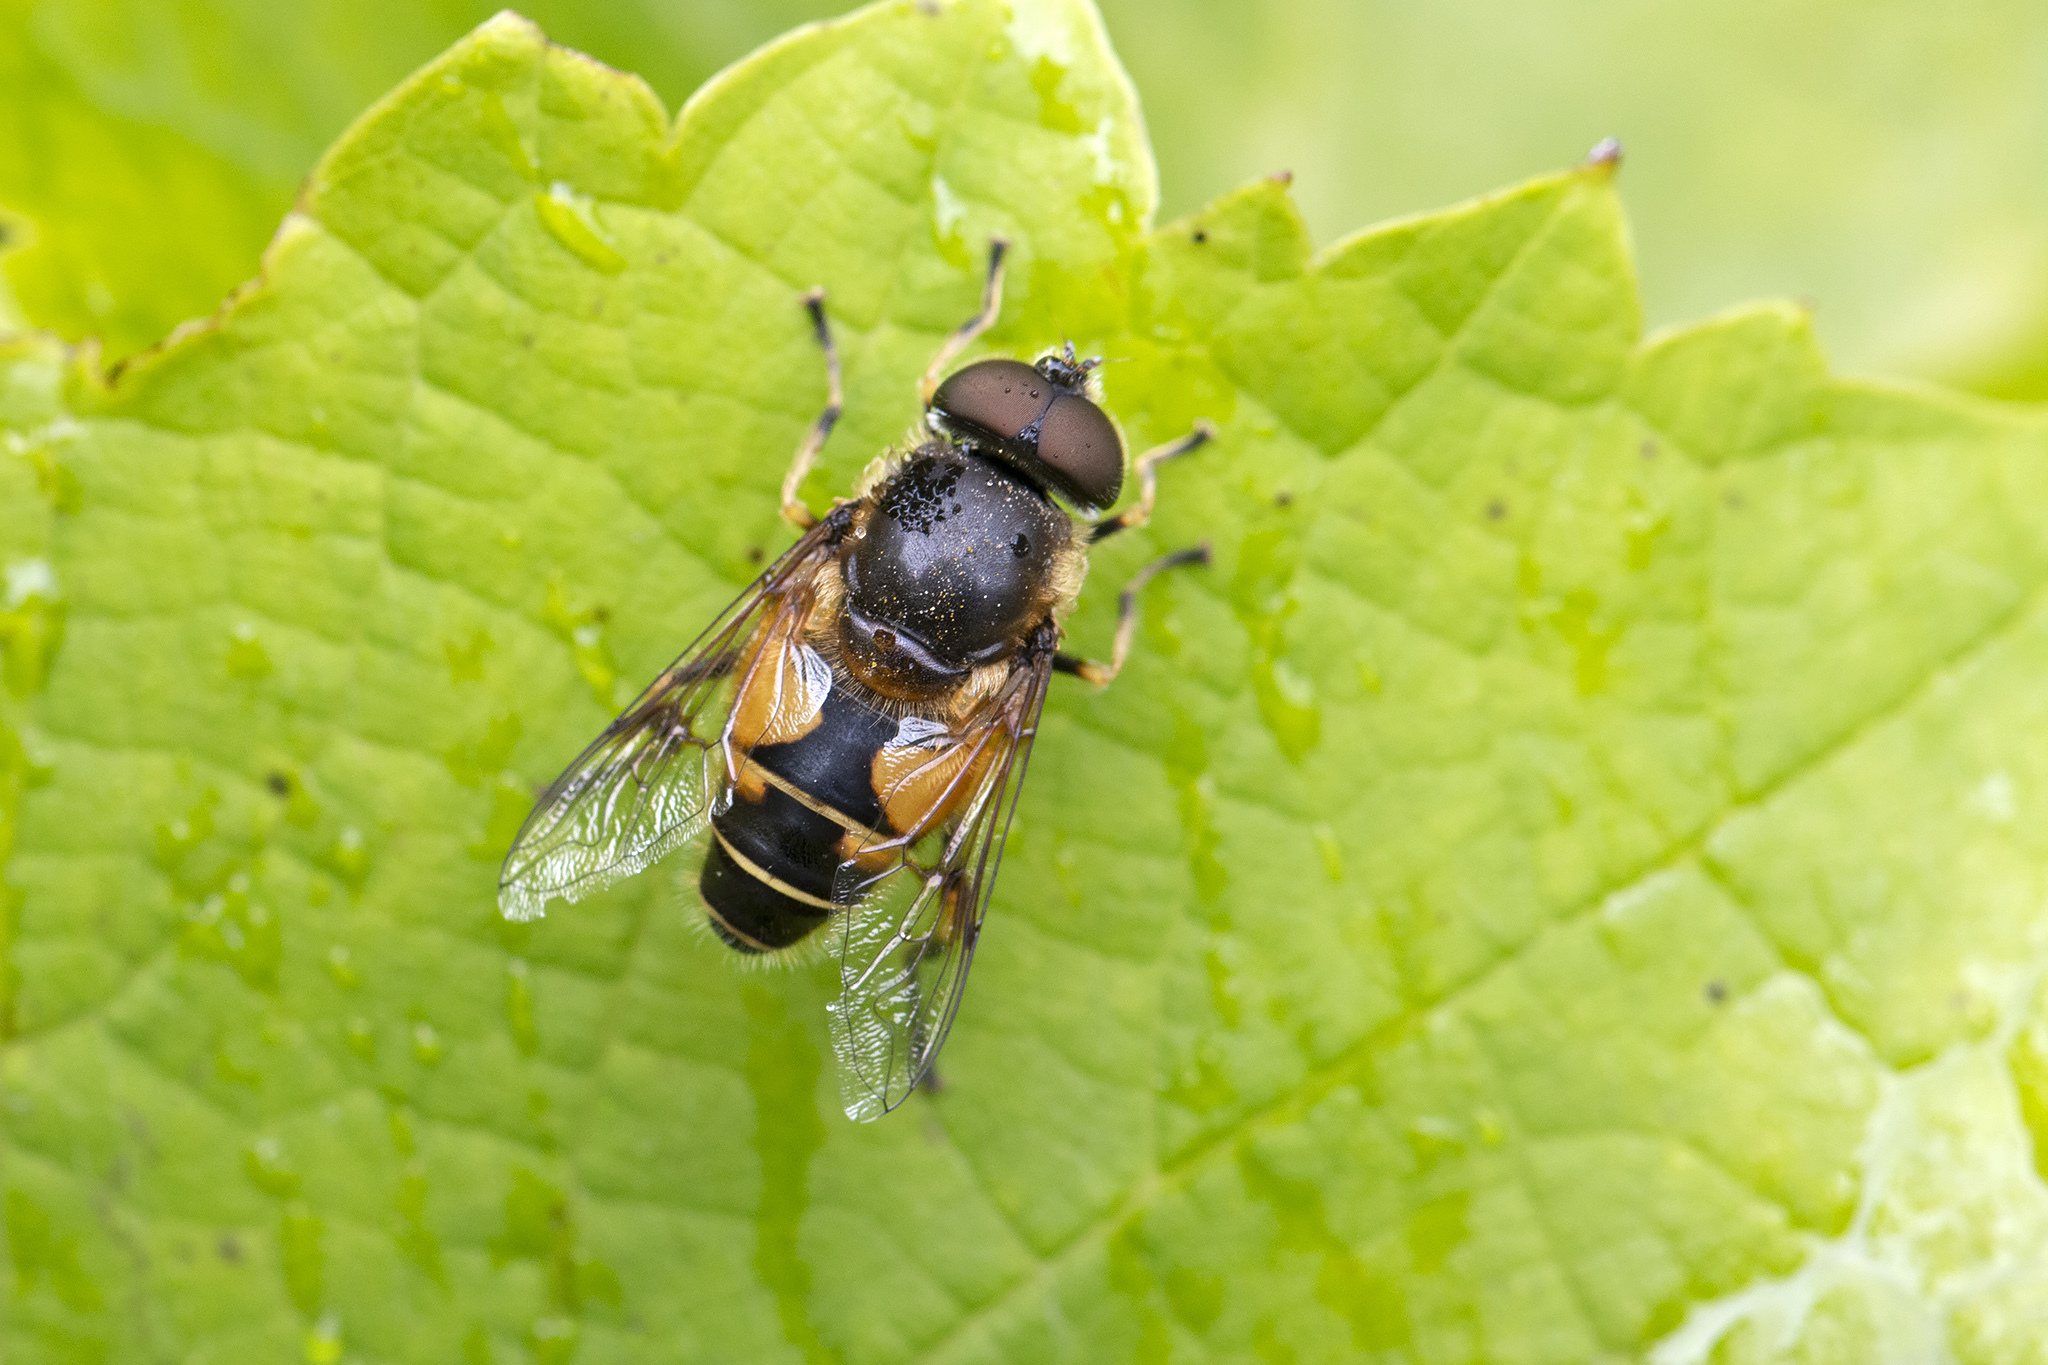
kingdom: Animalia
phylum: Arthropoda
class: Insecta
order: Diptera
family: Syrphidae
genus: Cheilosia
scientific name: Cheilosia morio
